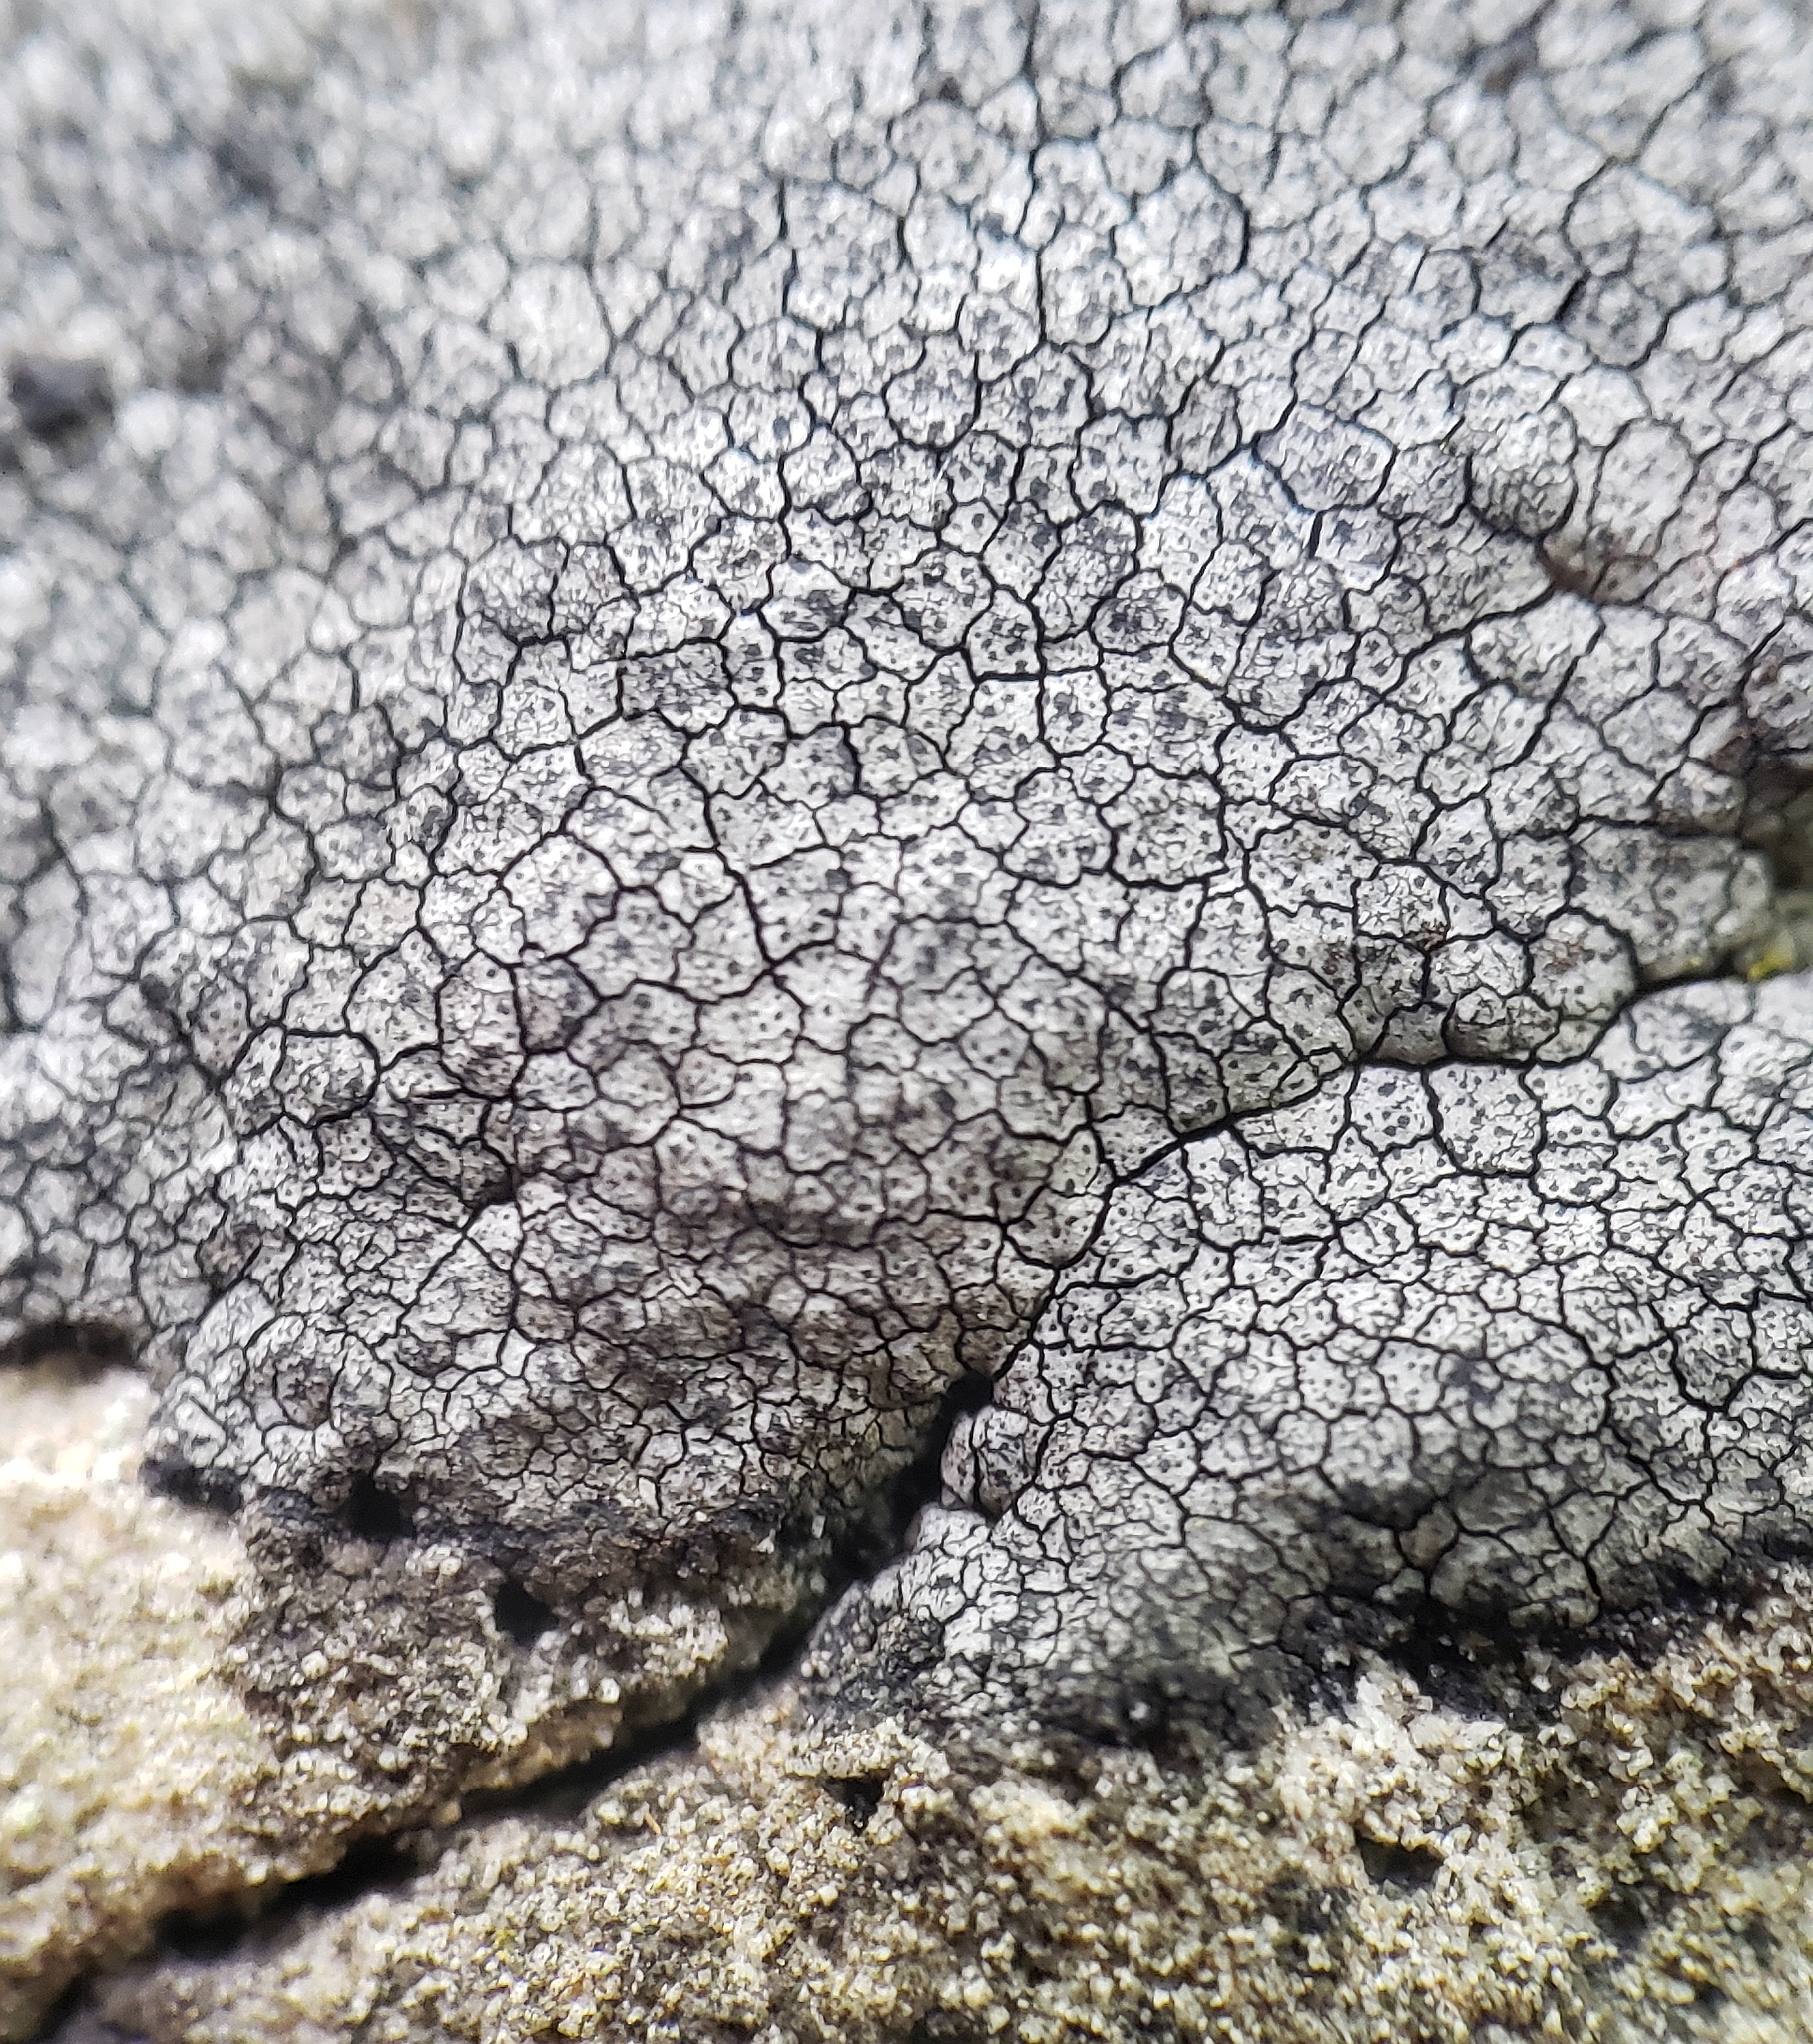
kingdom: Fungi
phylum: Ascomycota
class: Eurotiomycetes
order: Verrucariales
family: Verrucariaceae
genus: Verrucaria
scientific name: Verrucaria fuscella
